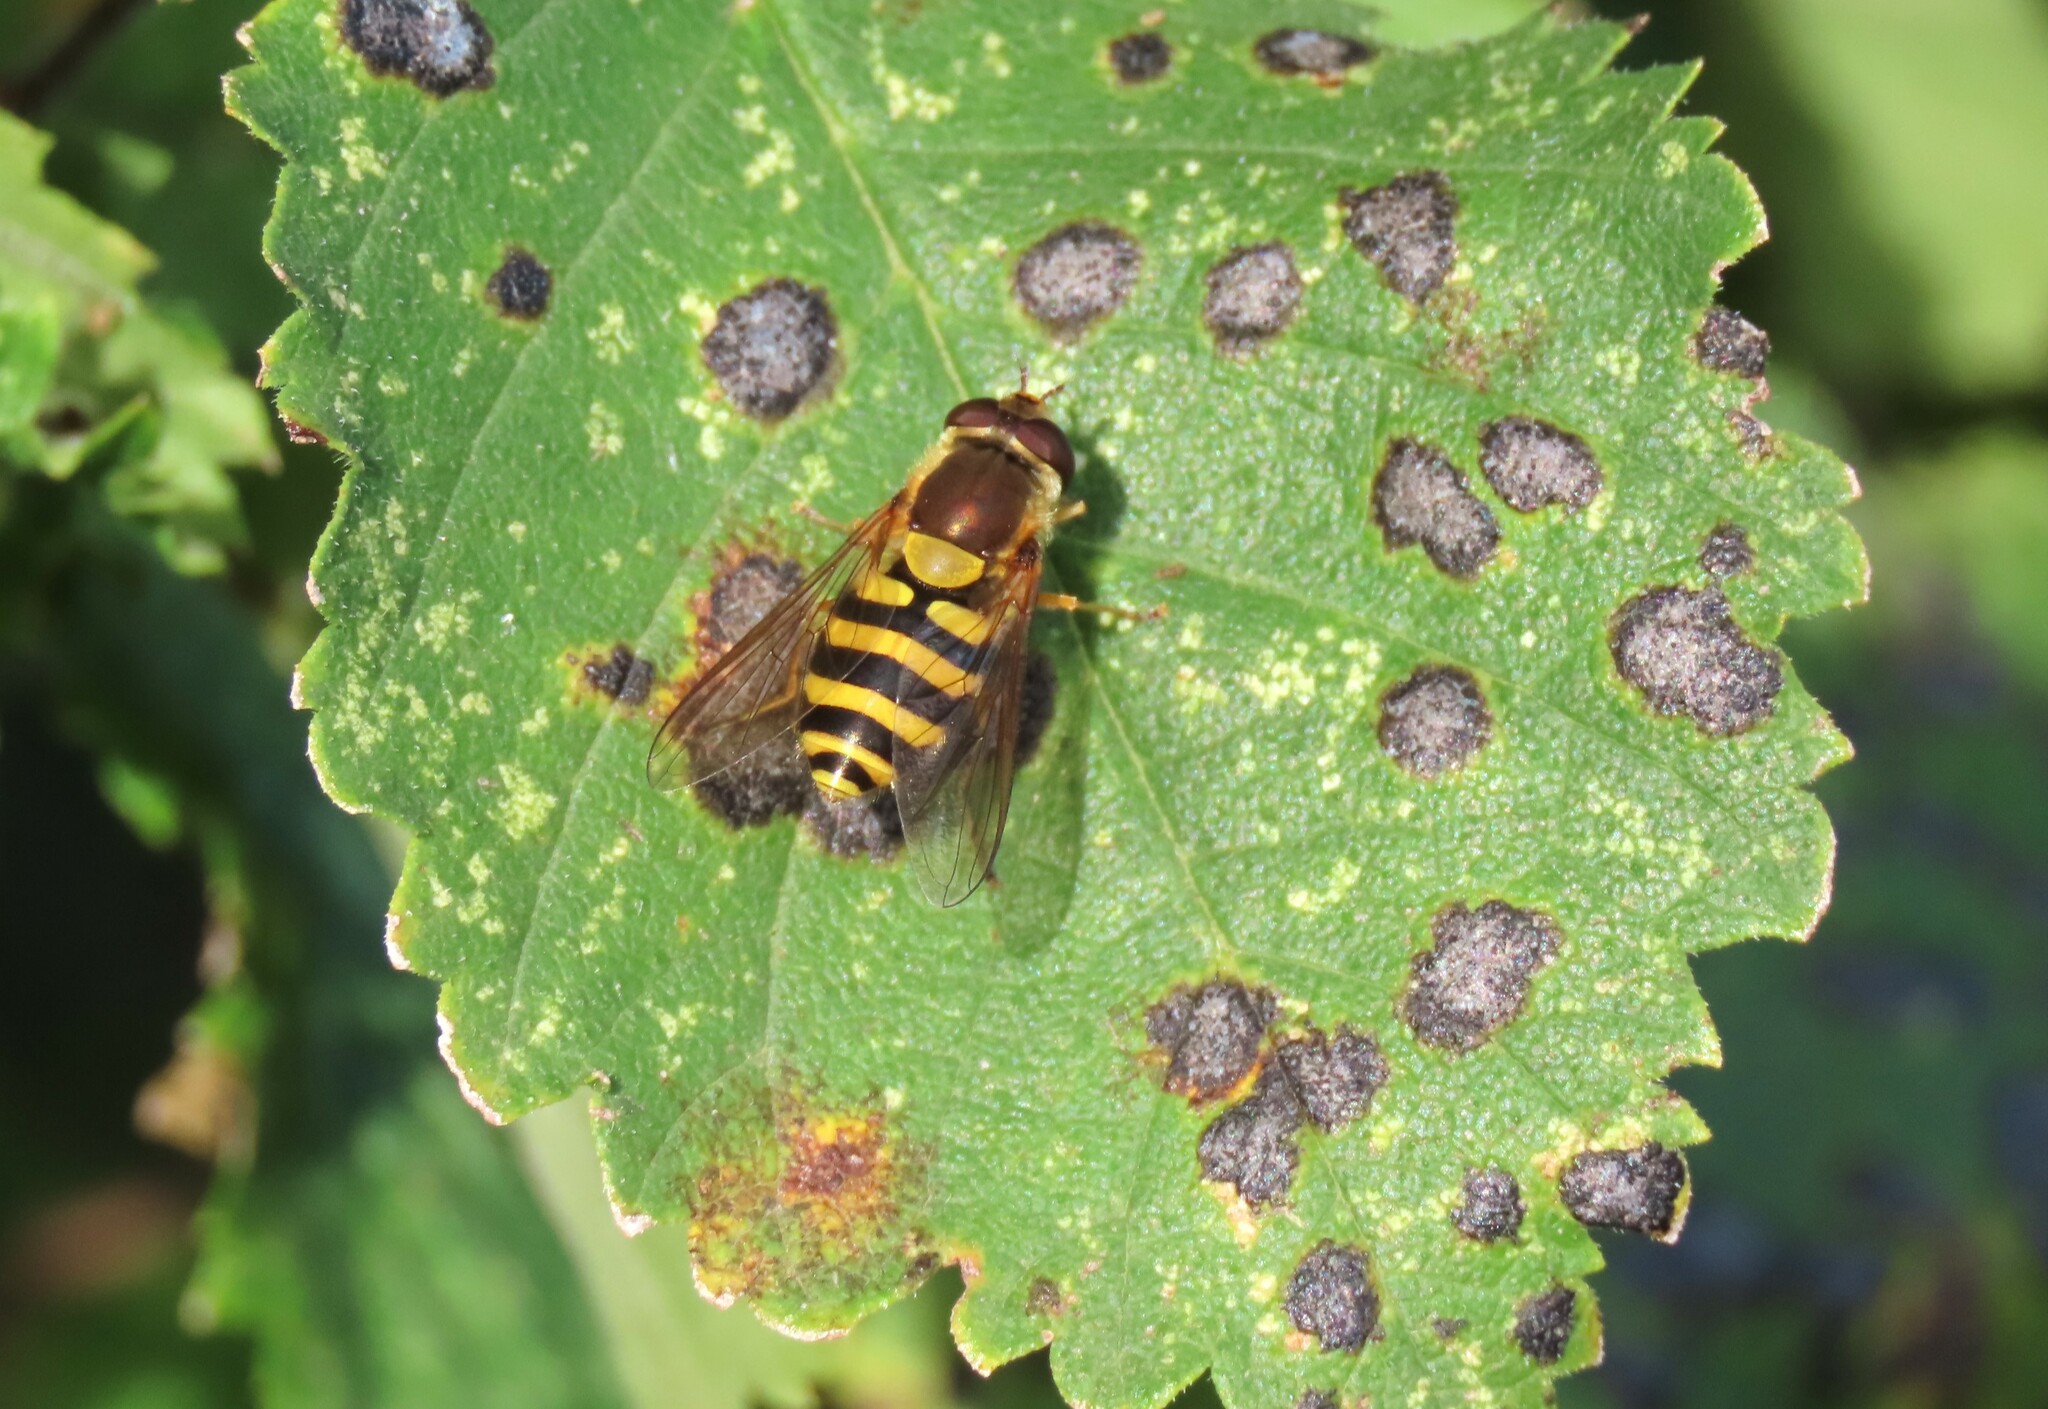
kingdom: Animalia
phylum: Arthropoda
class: Insecta
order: Diptera
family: Syrphidae
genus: Syrphus
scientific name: Syrphus
